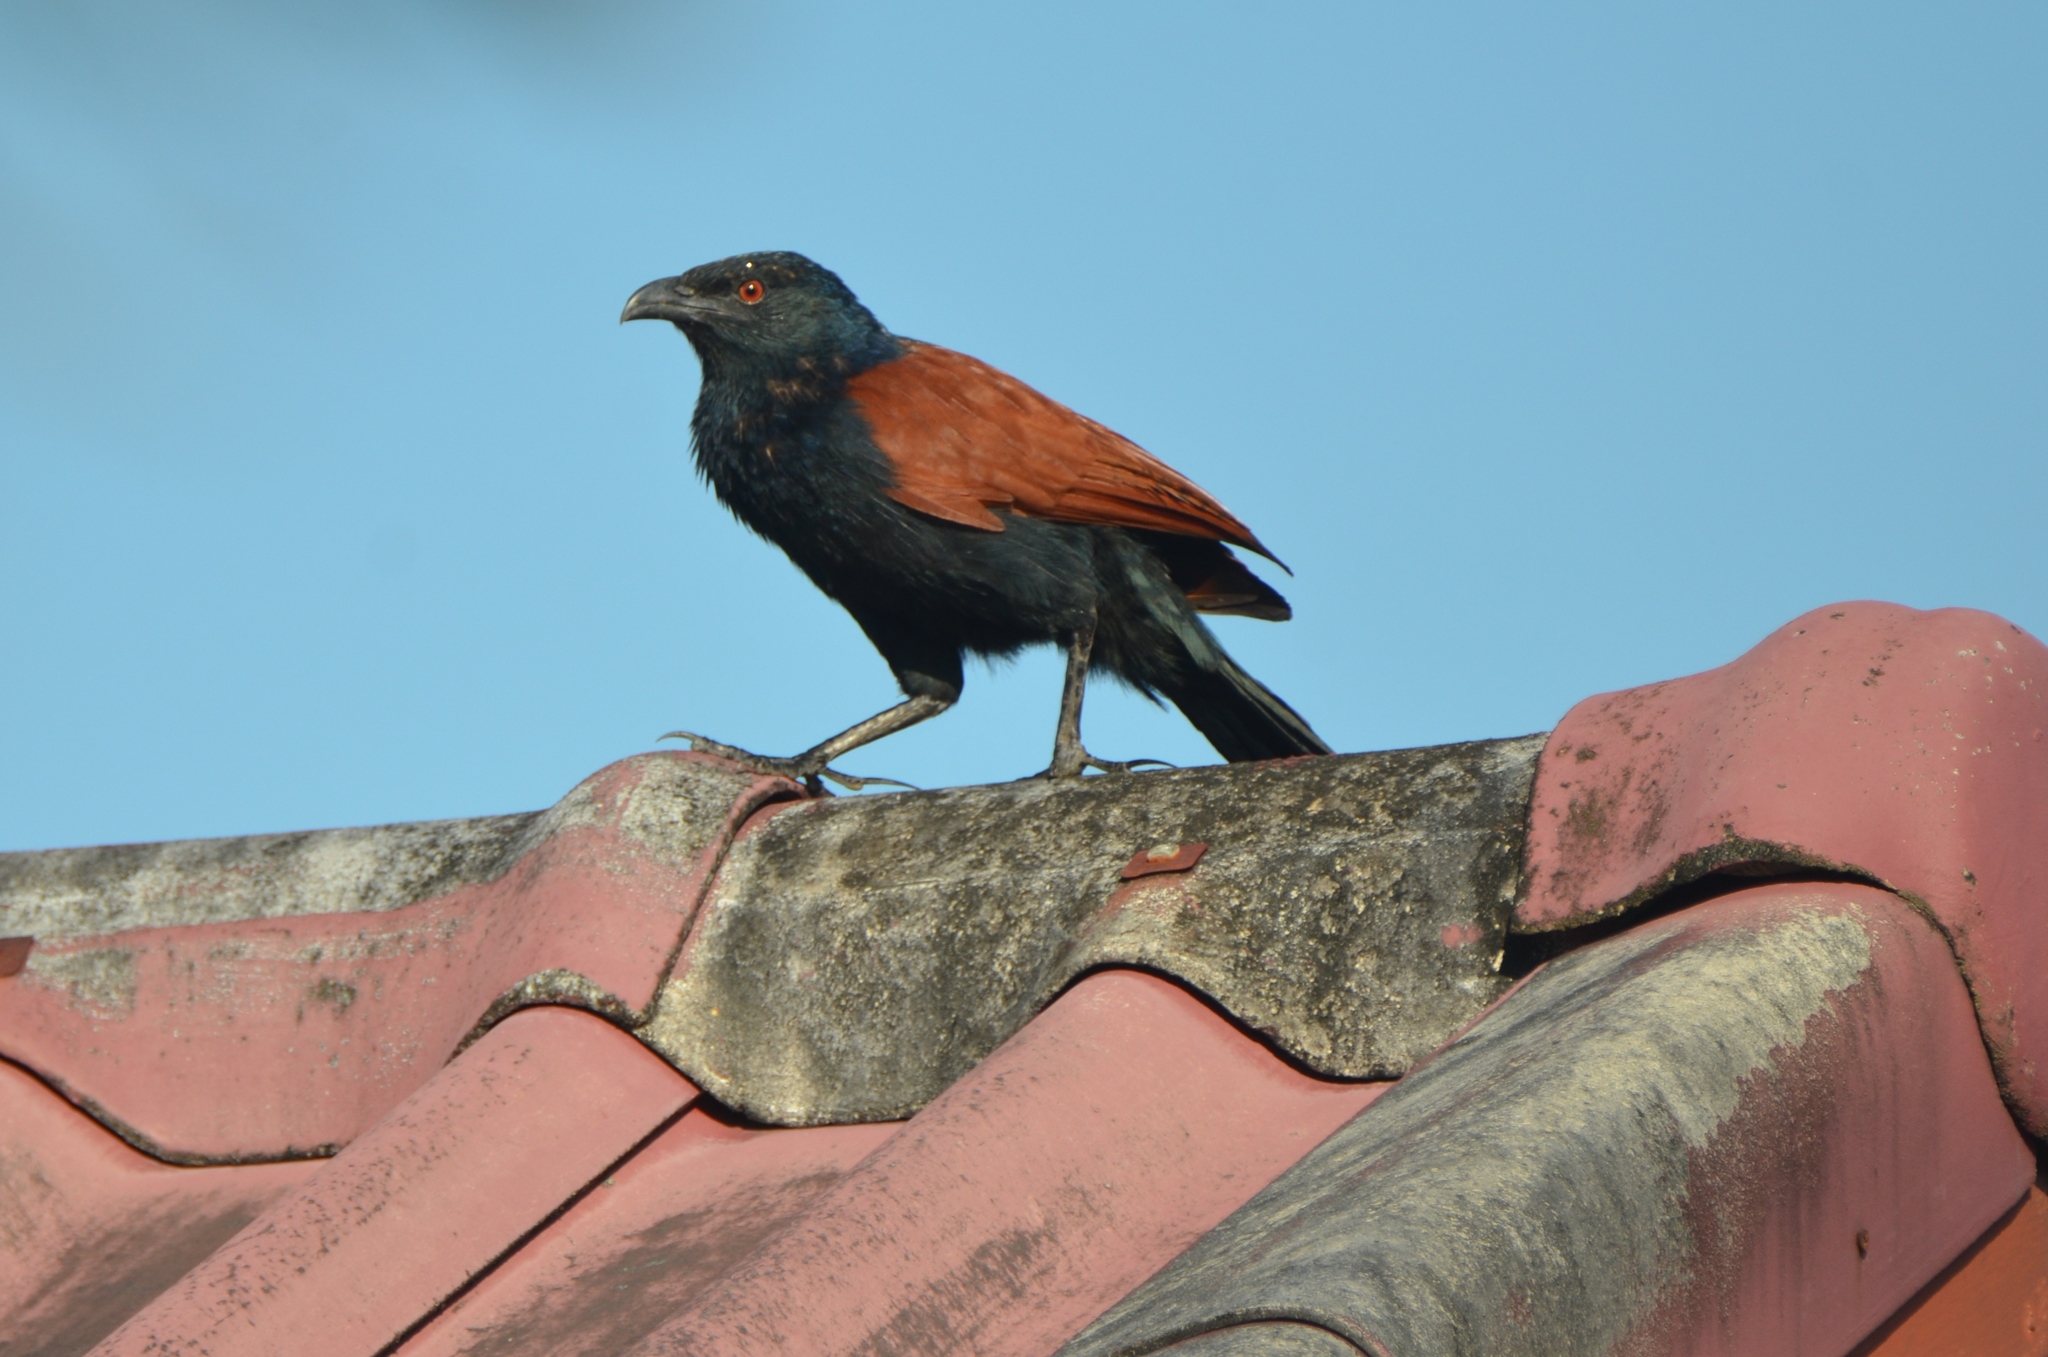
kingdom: Animalia
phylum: Chordata
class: Aves
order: Cuculiformes
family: Cuculidae
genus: Centropus
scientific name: Centropus sinensis
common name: Greater coucal
